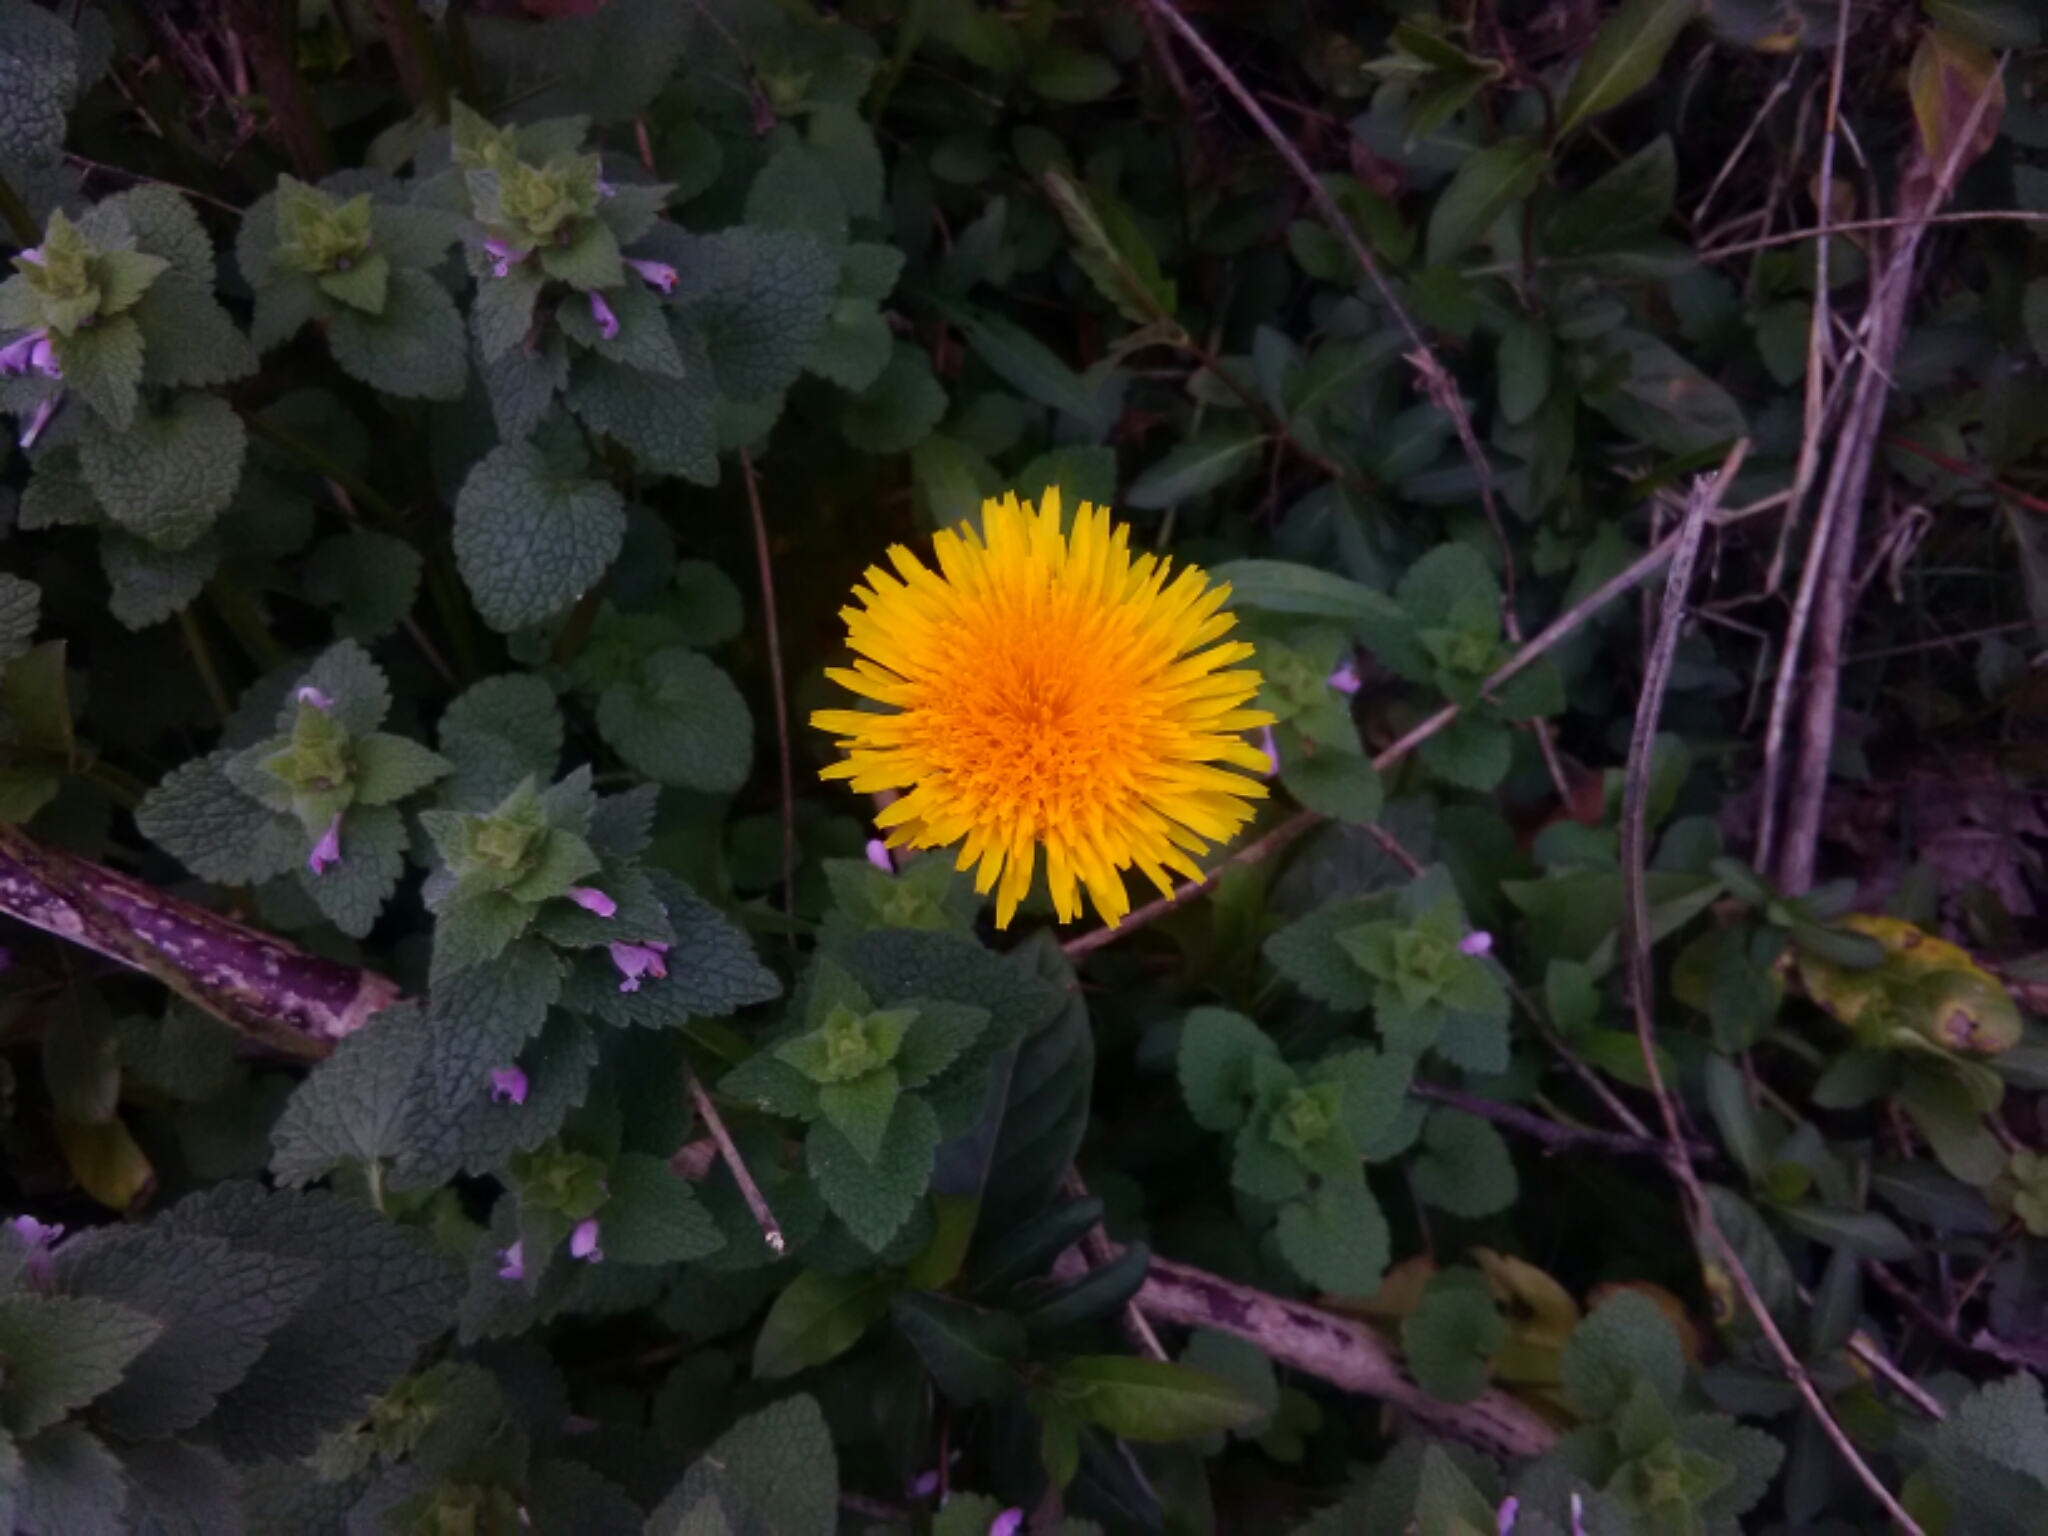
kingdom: Plantae
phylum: Tracheophyta
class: Magnoliopsida
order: Asterales
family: Asteraceae
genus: Taraxacum
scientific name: Taraxacum officinale
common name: Common dandelion
